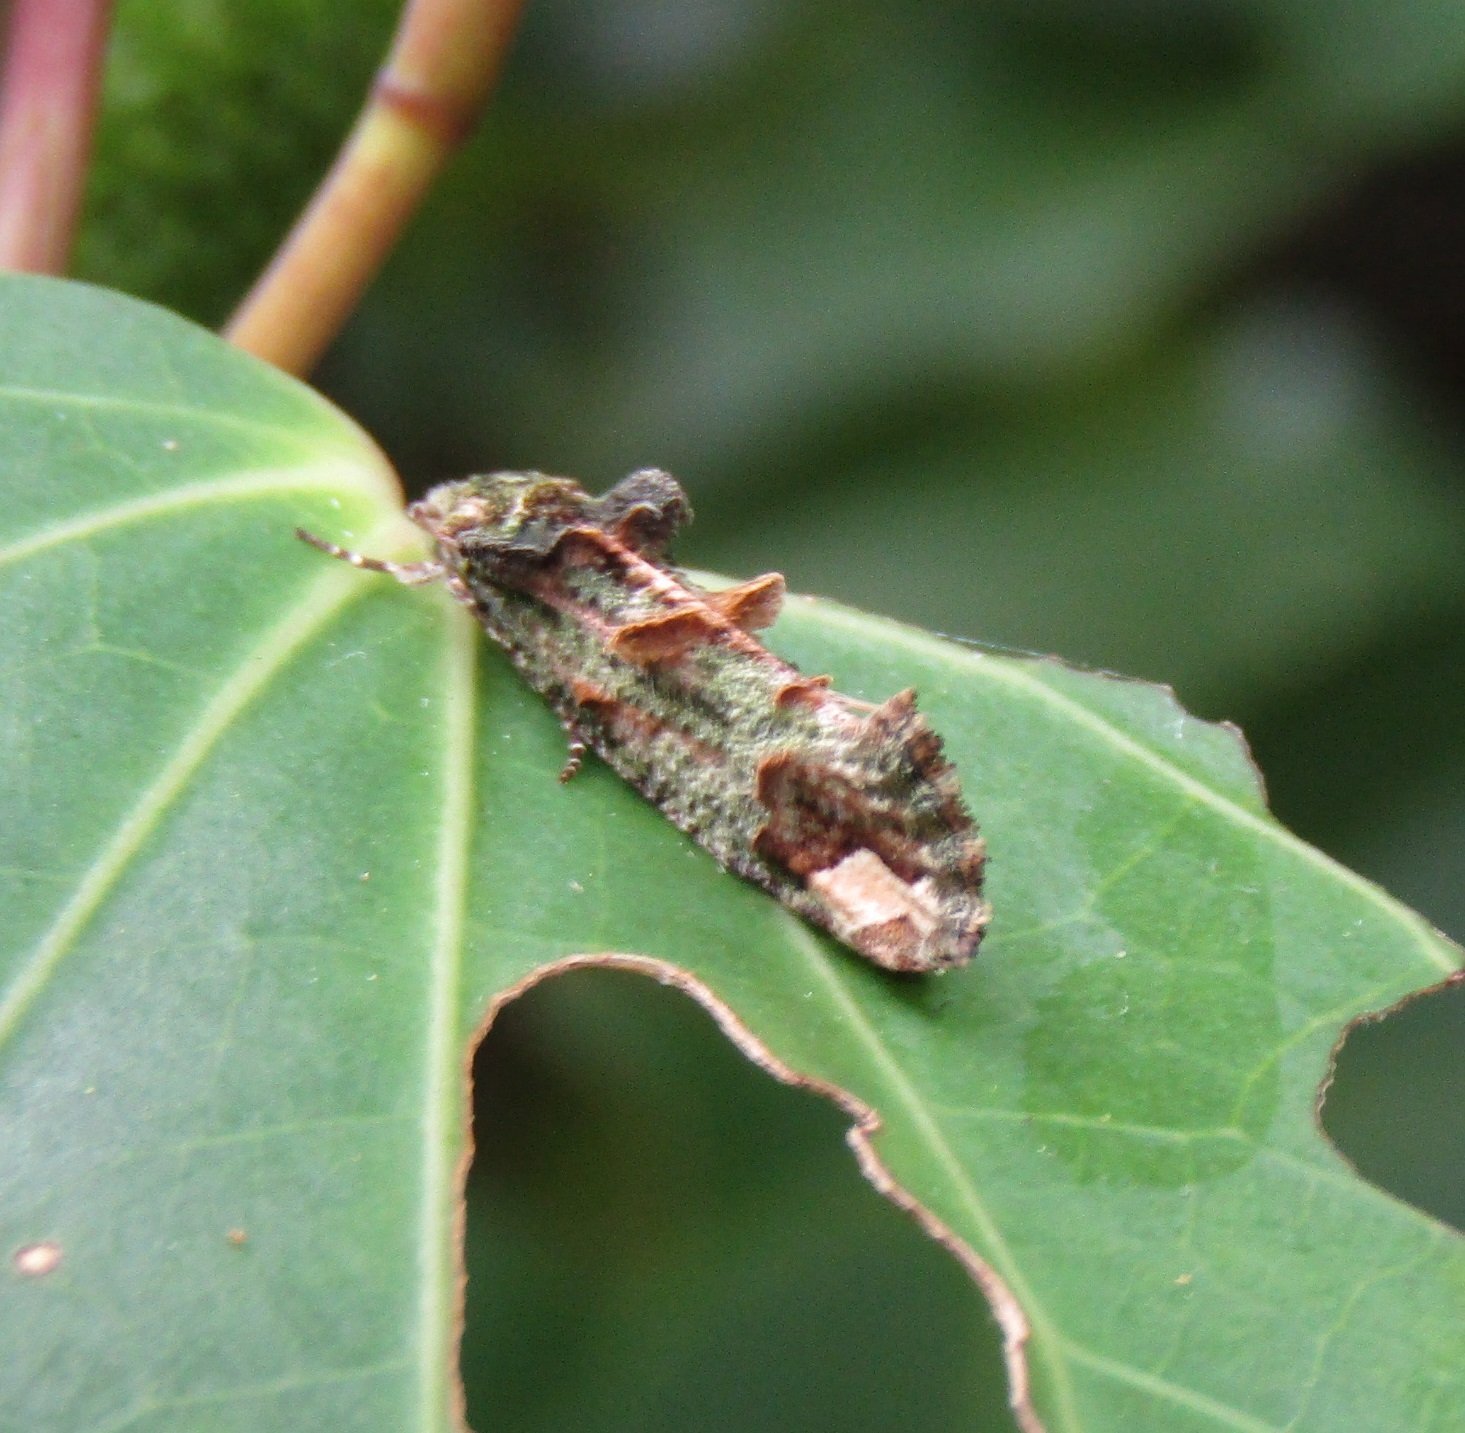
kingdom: Animalia
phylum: Arthropoda
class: Insecta
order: Lepidoptera
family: Tineidae
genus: Lysiphragma
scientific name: Lysiphragma mixochlora
